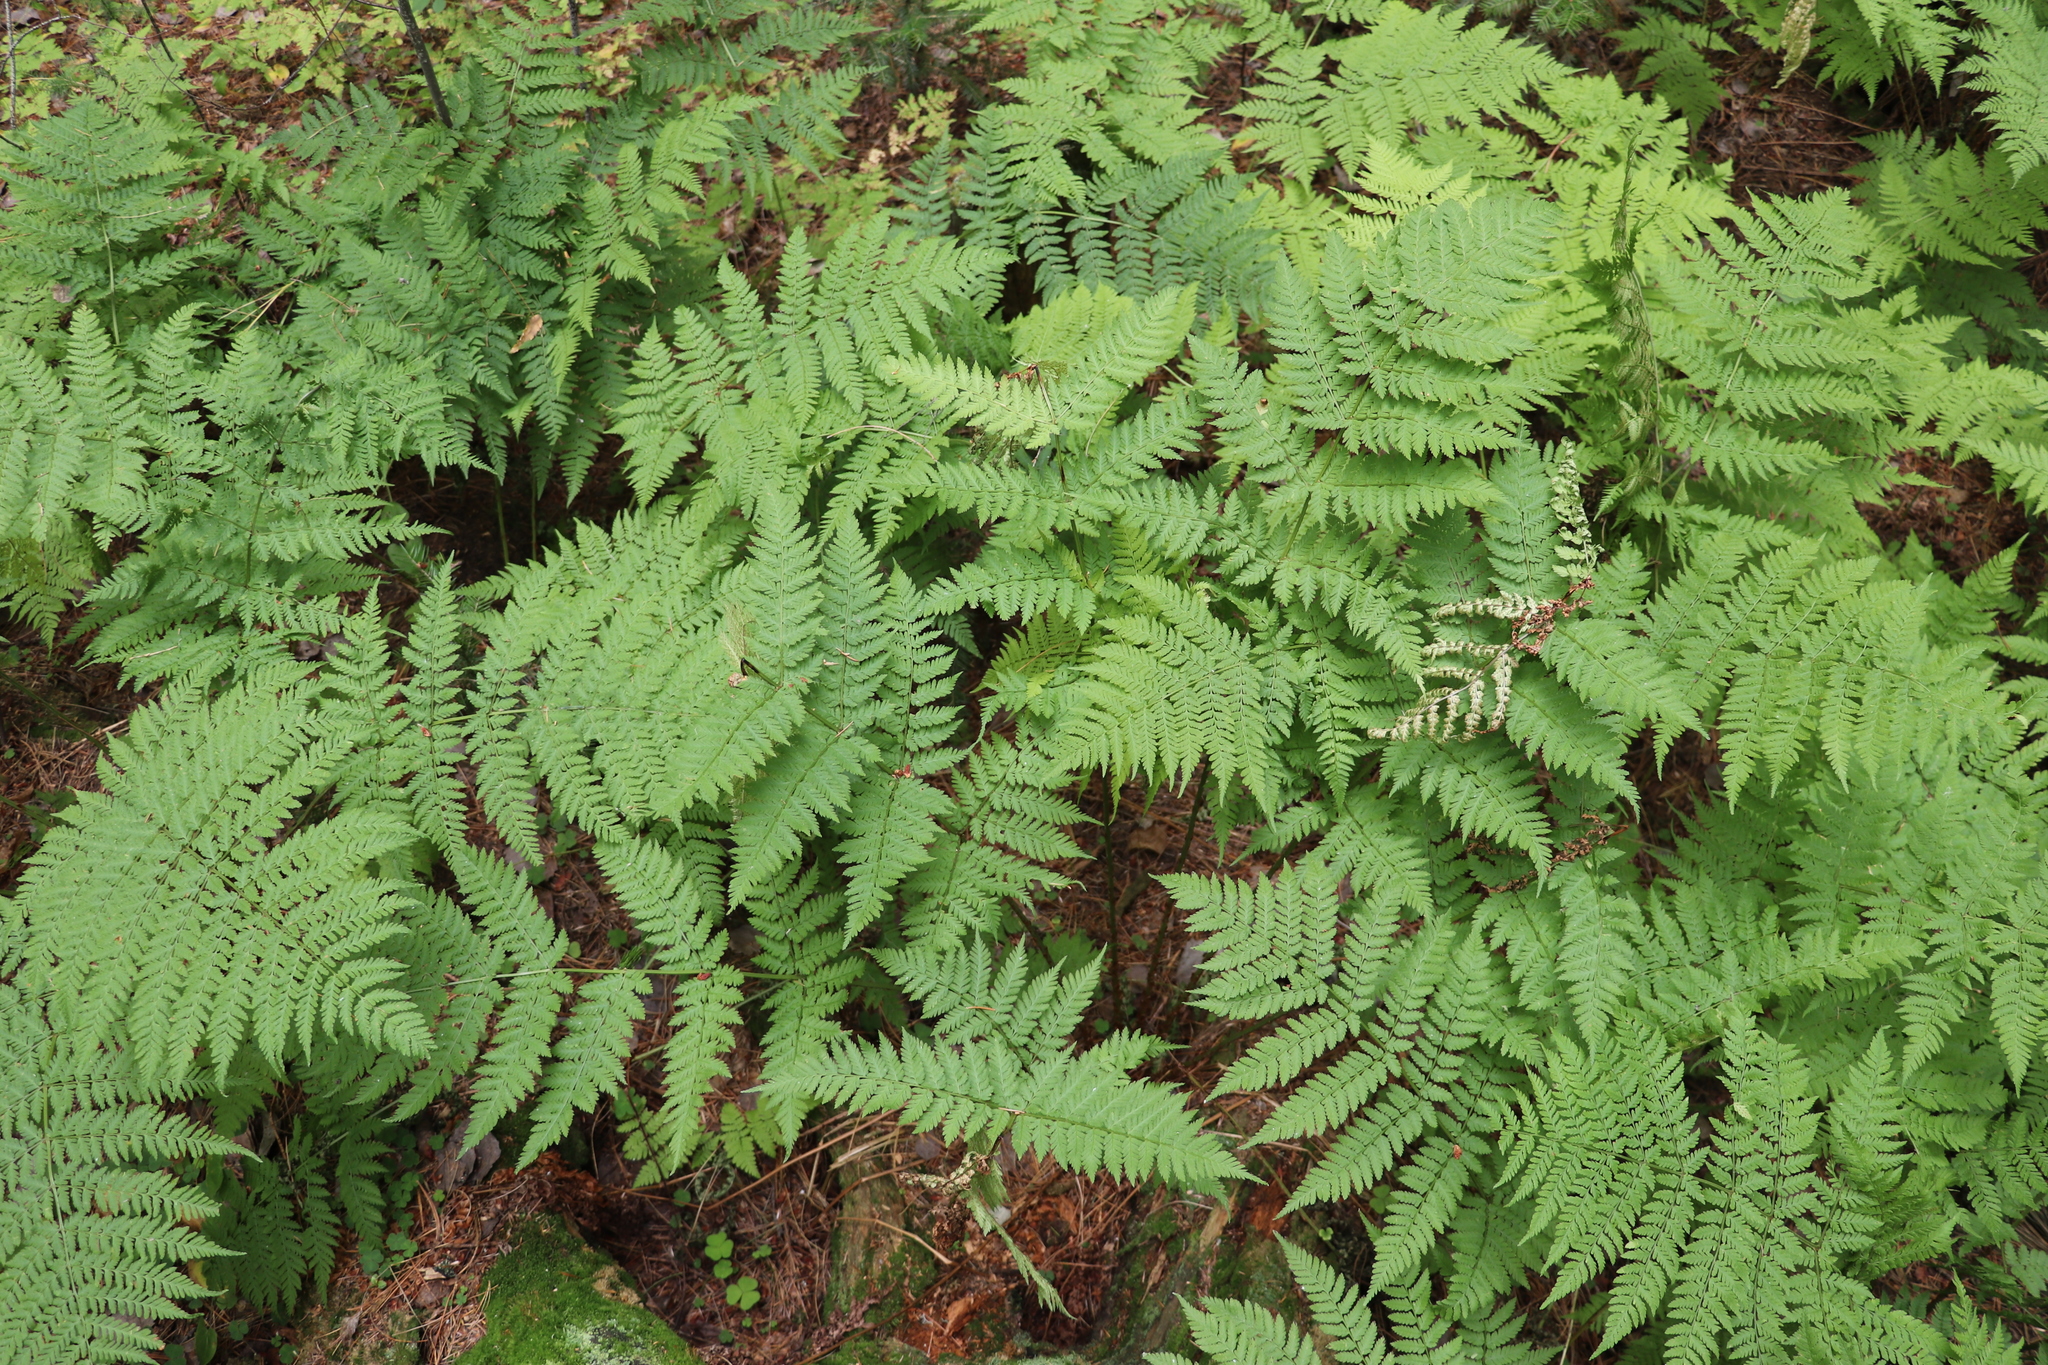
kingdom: Plantae
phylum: Tracheophyta
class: Polypodiopsida
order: Polypodiales
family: Dryopteridaceae
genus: Dryopteris
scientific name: Dryopteris expansa
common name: Northern buckler fern
